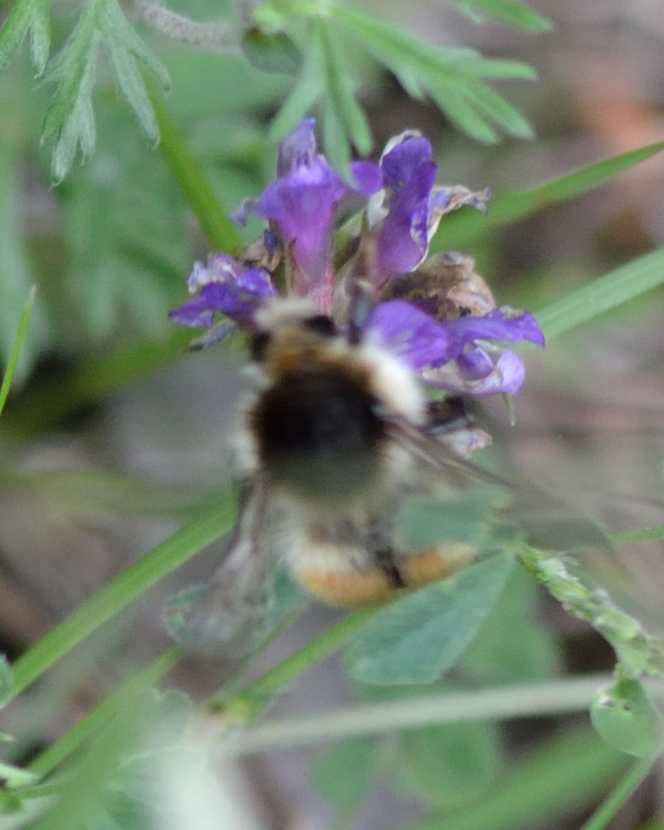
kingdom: Animalia
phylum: Arthropoda
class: Insecta
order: Hymenoptera
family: Apidae
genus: Bombus
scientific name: Bombus humilis
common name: Brown-banded carder-bee
